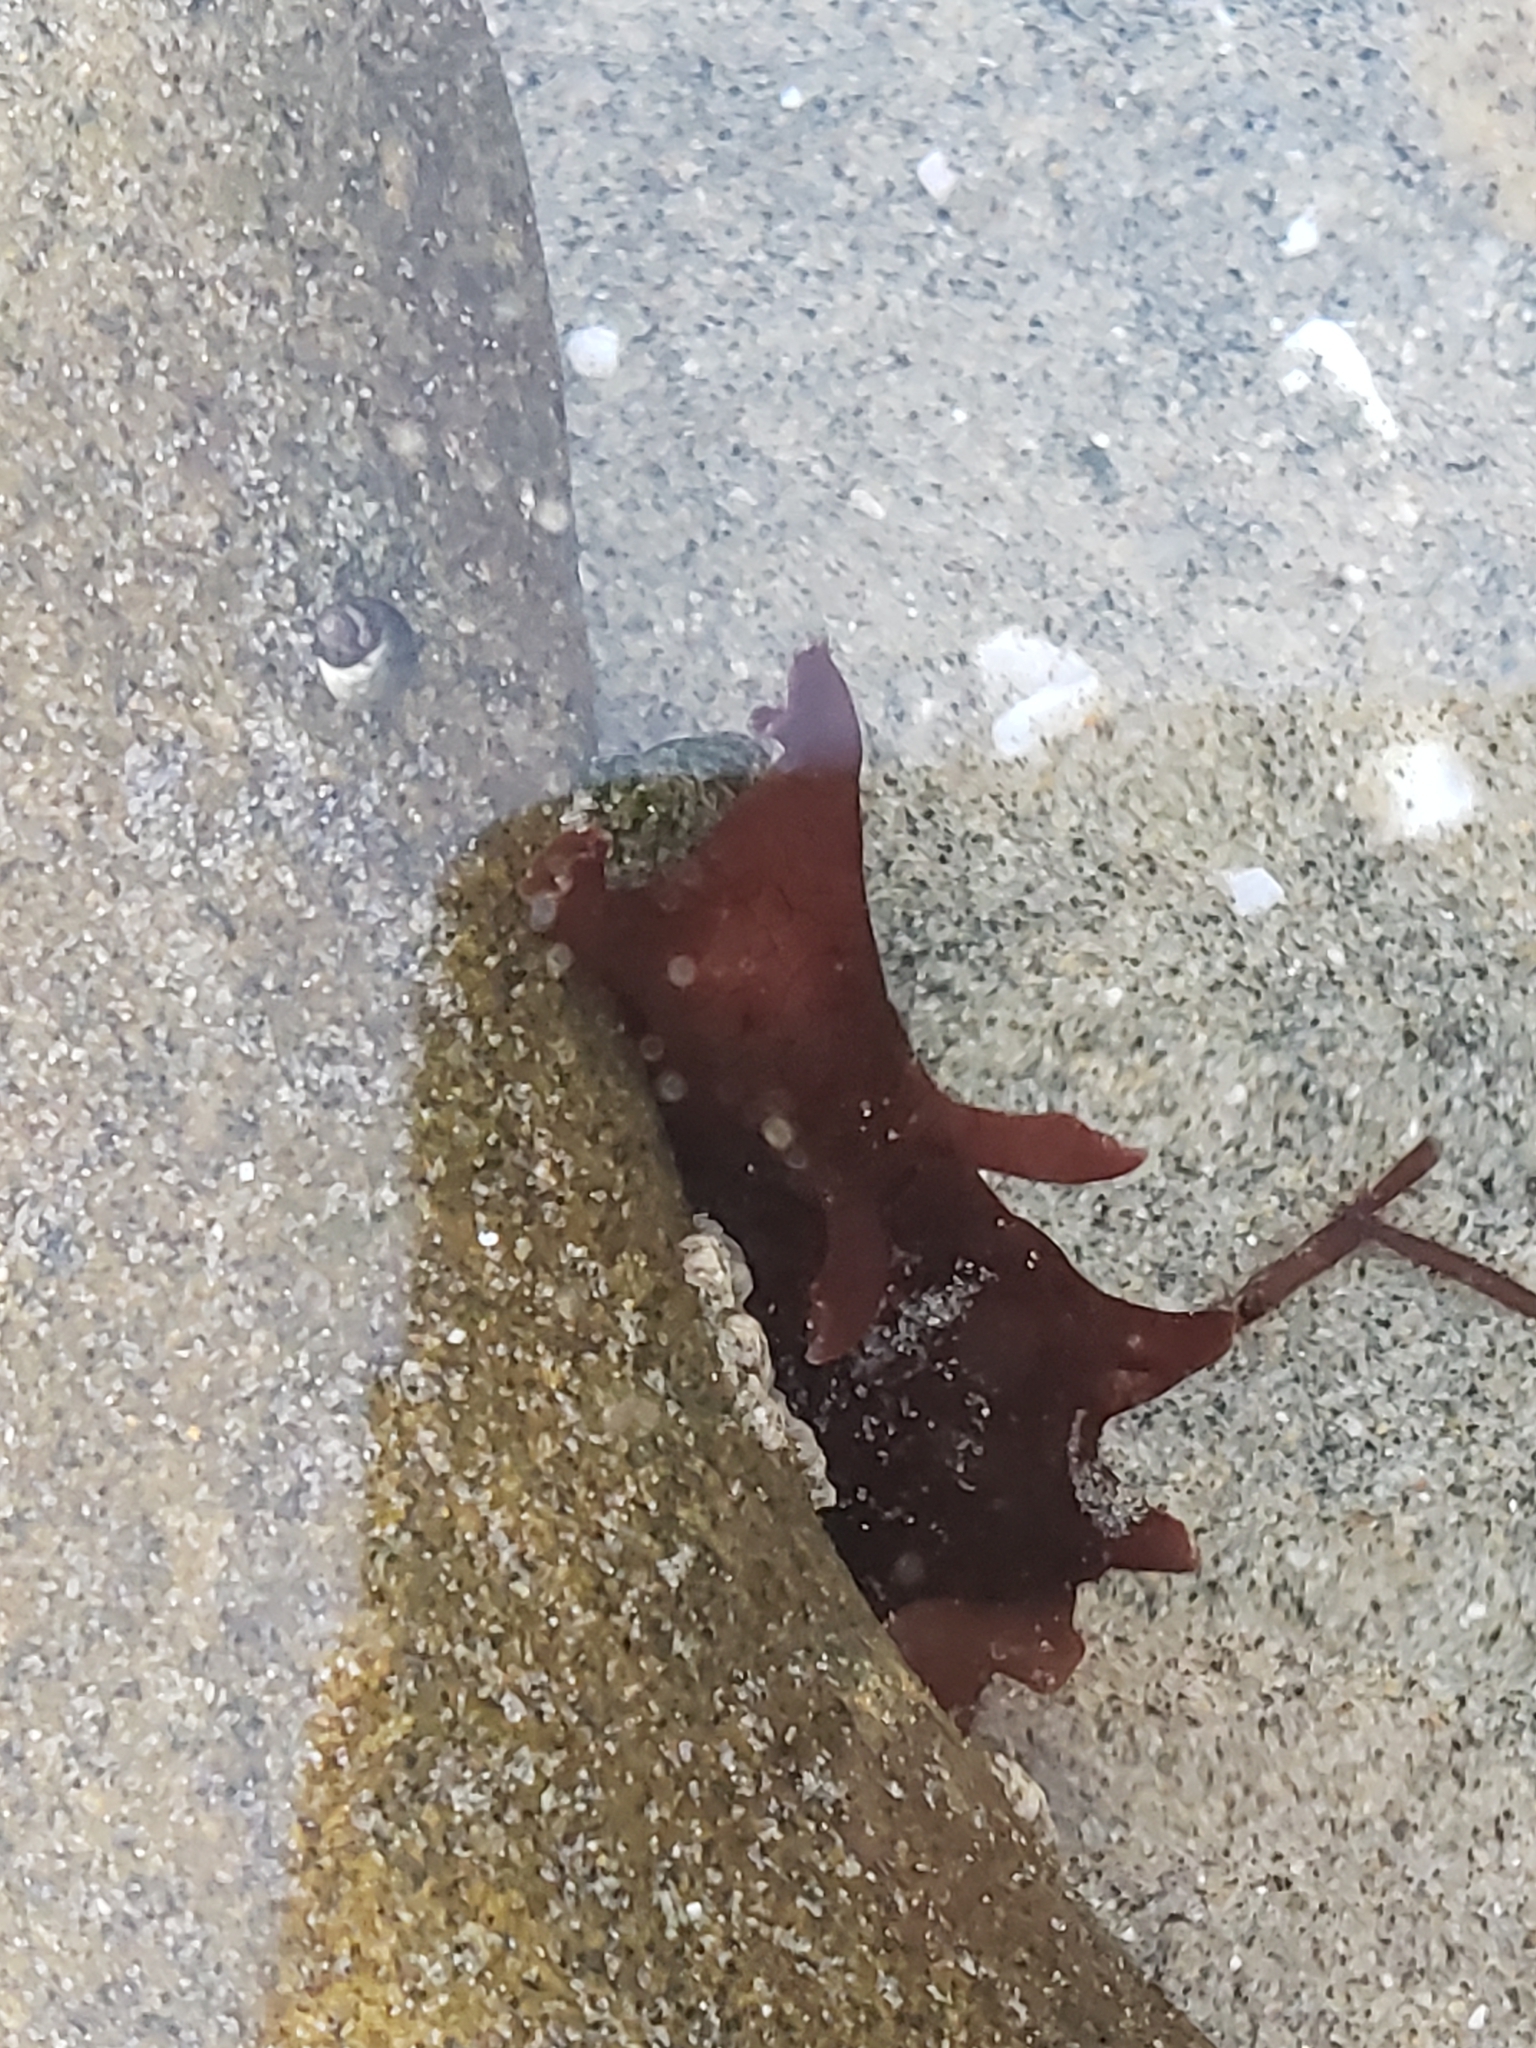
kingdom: Animalia
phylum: Mollusca
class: Gastropoda
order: Aplysiida
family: Aplysiidae
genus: Aplysia
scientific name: Aplysia californica
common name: California seahare
